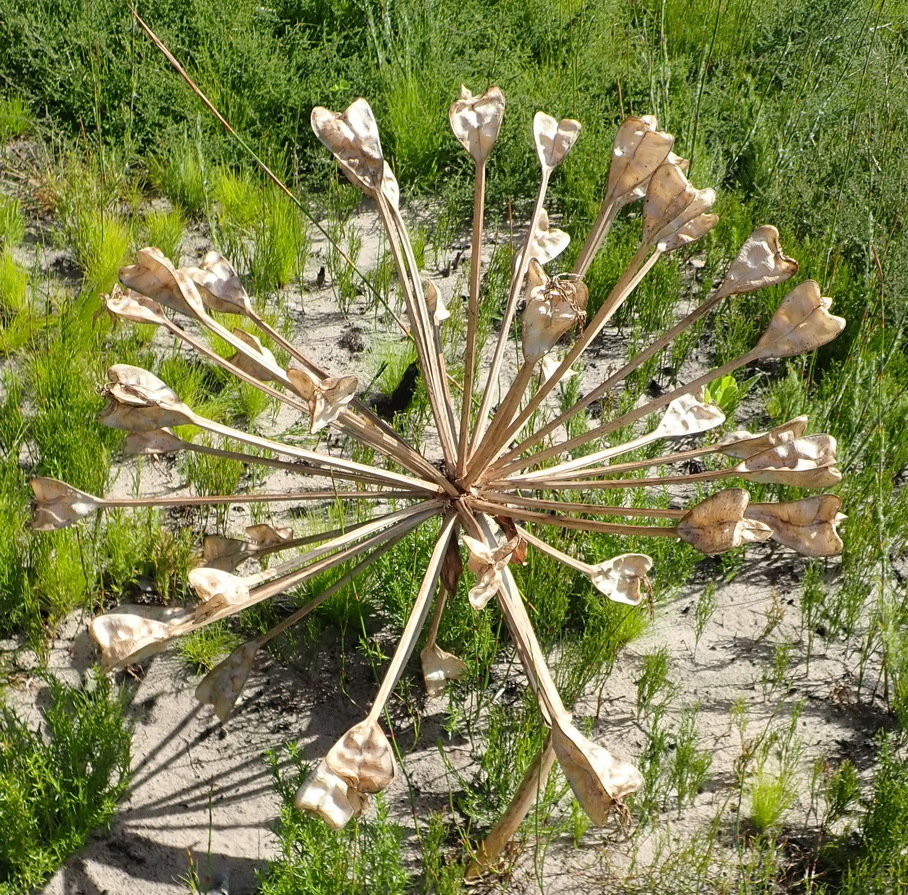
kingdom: Plantae
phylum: Tracheophyta
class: Liliopsida
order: Asparagales
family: Amaryllidaceae
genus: Brunsvigia
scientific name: Brunsvigia orientalis
